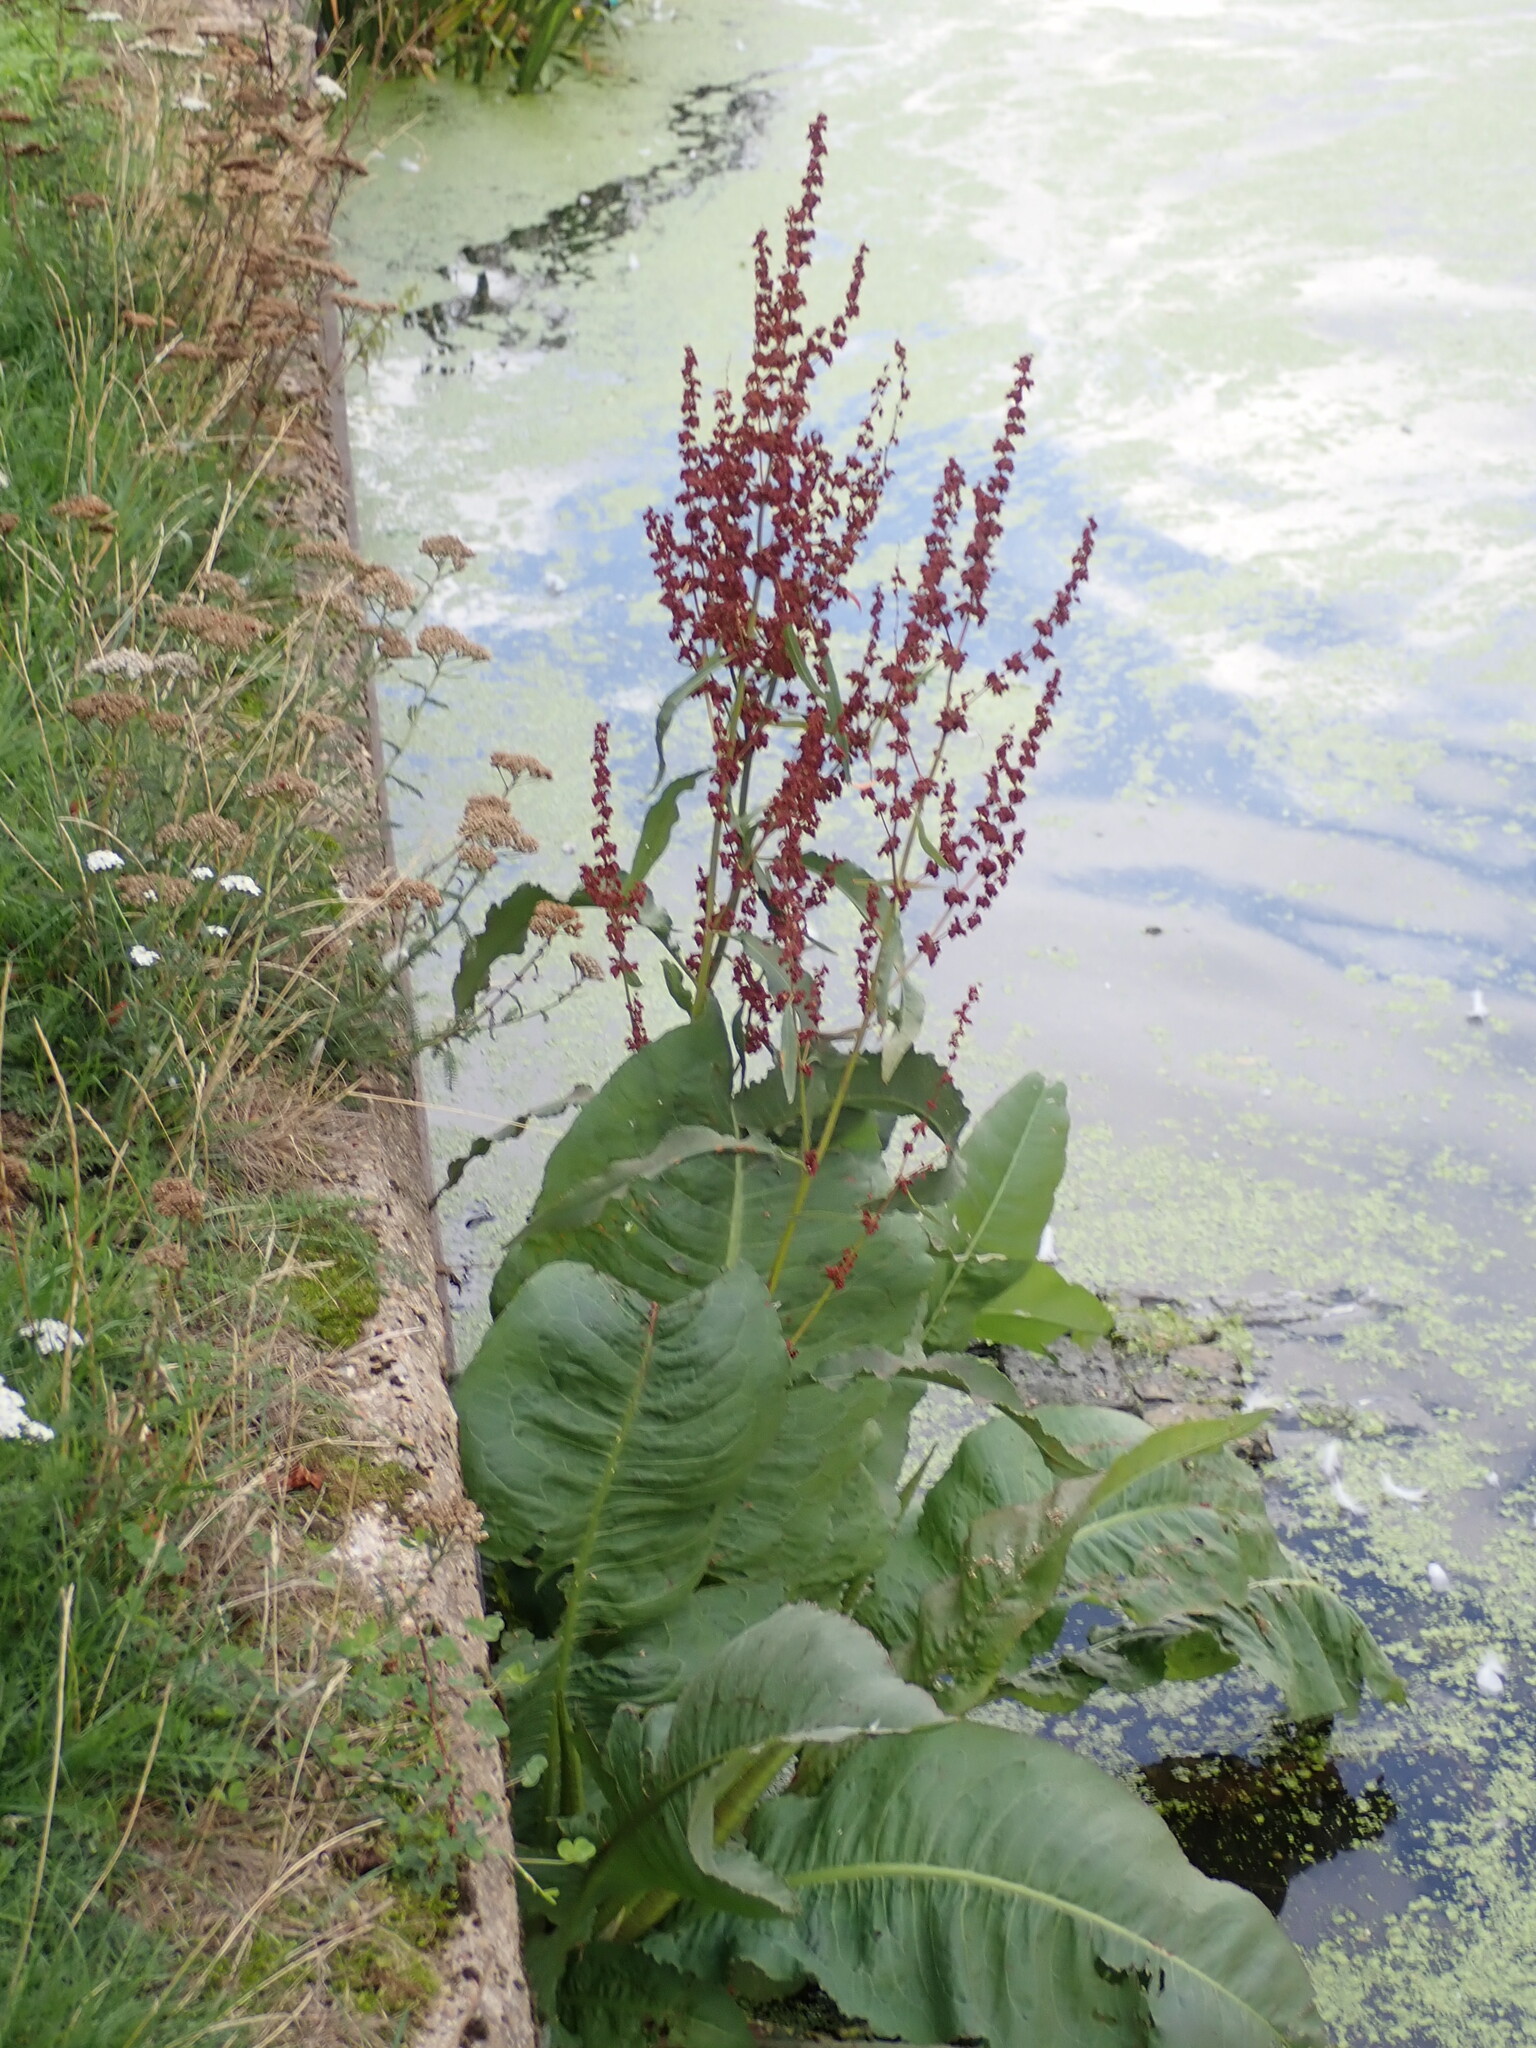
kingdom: Plantae
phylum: Tracheophyta
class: Magnoliopsida
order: Caryophyllales
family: Polygonaceae
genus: Rumex
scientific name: Rumex hydrolapathum
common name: Water dock
